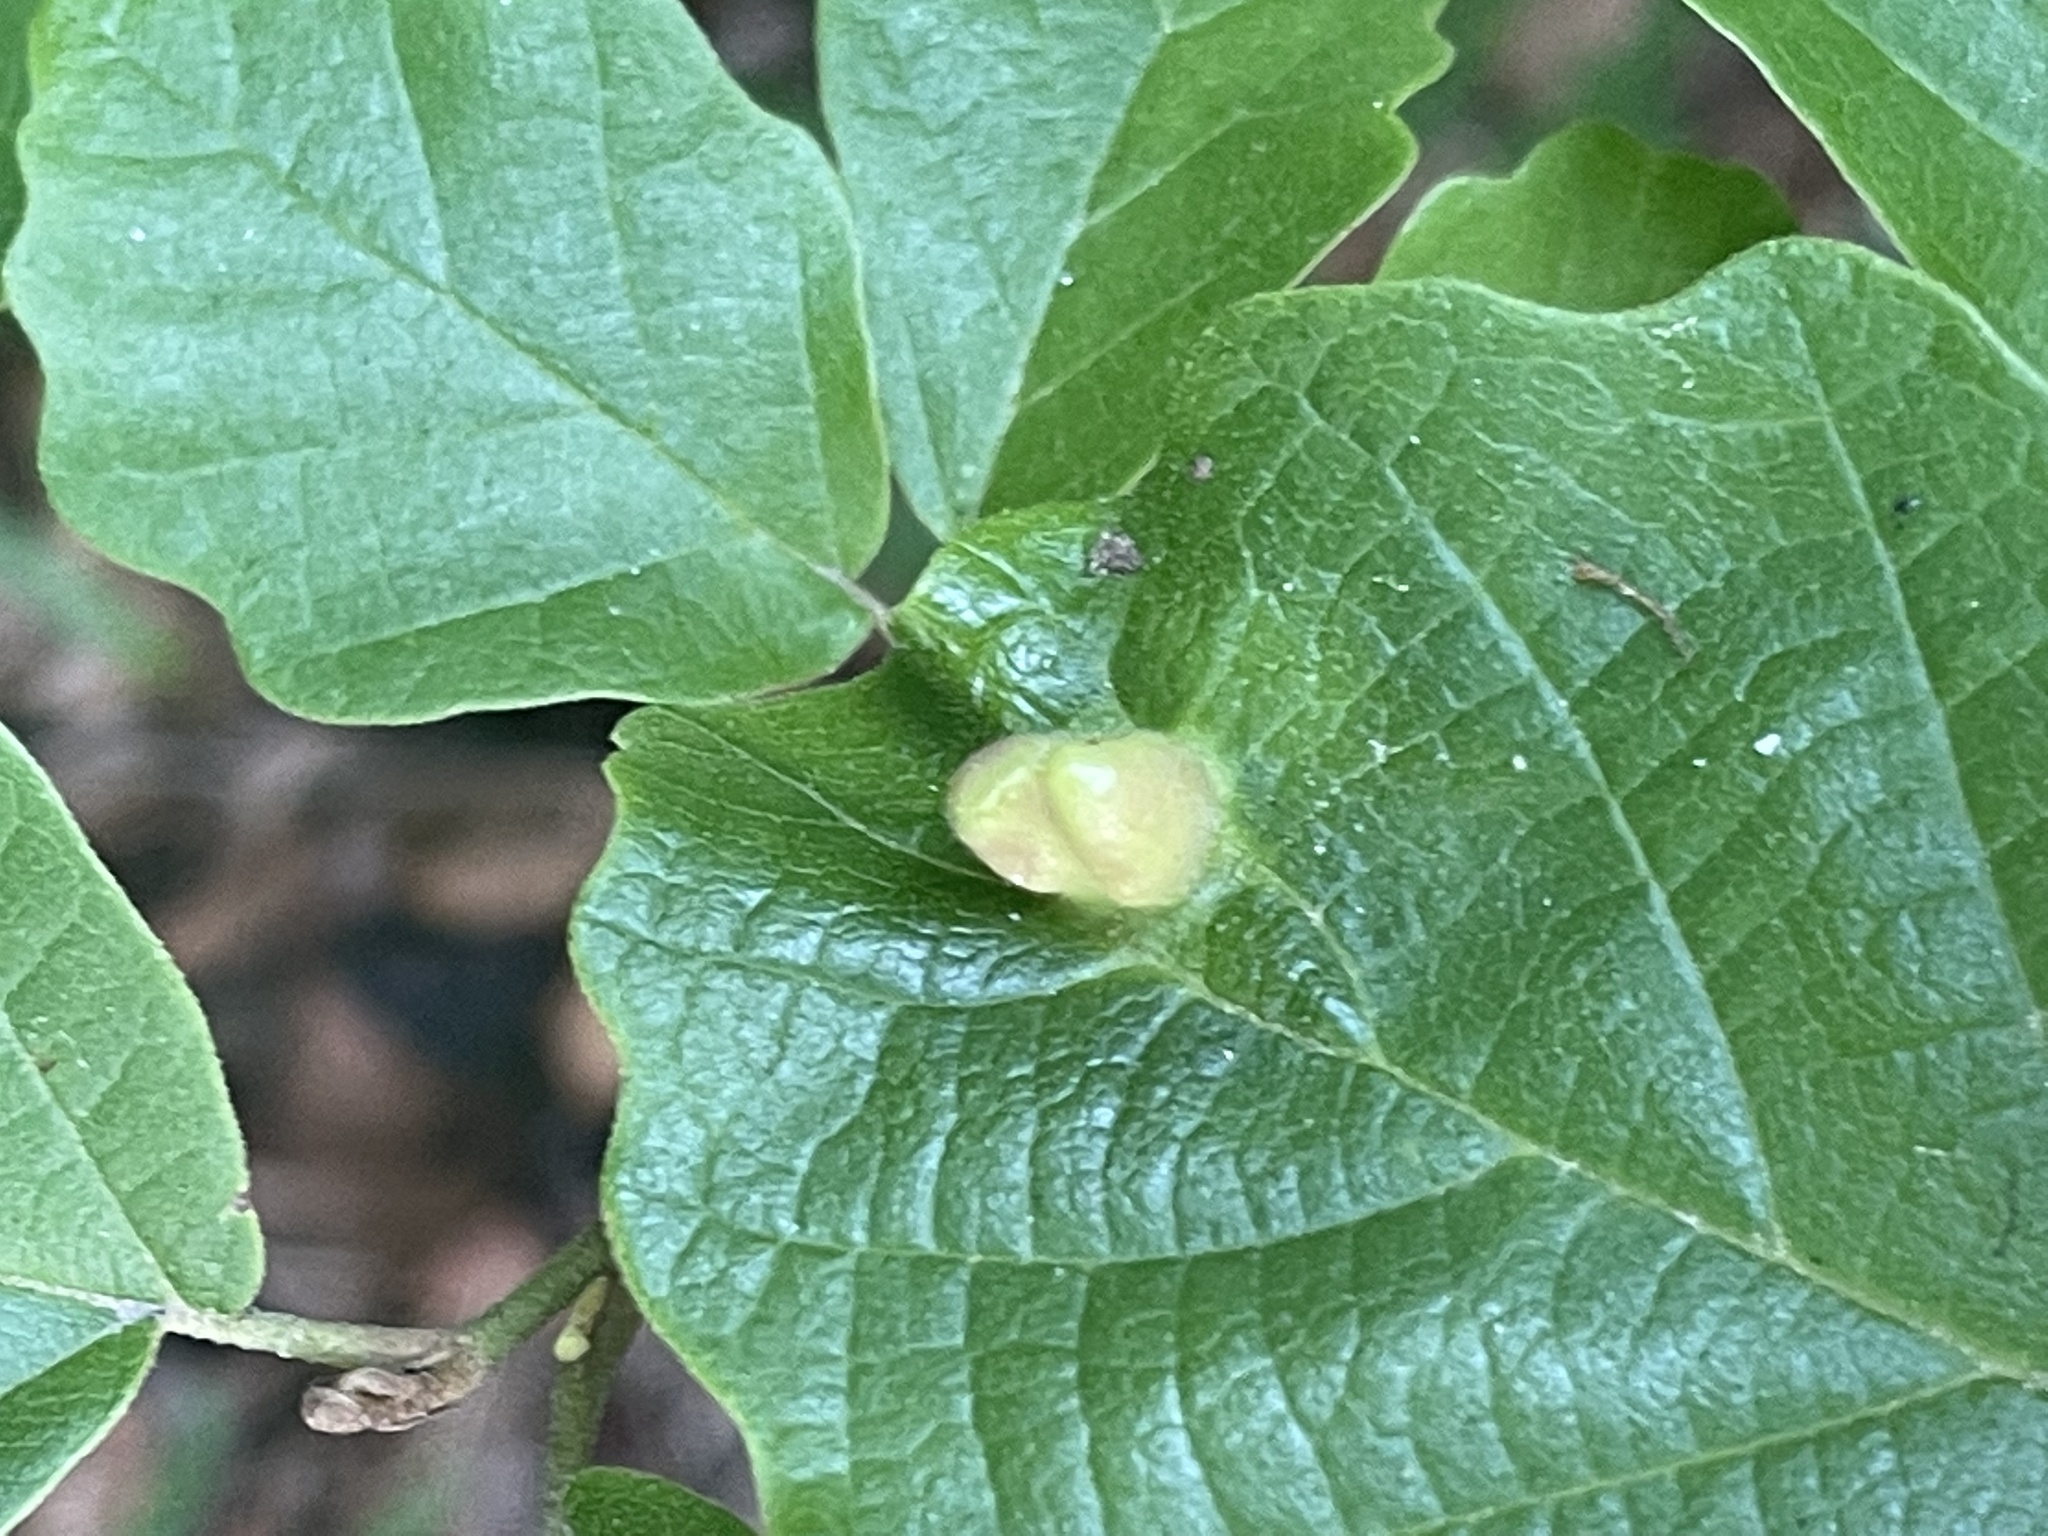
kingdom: Animalia
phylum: Arthropoda
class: Insecta
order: Hemiptera
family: Aphididae
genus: Hormaphis
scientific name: Hormaphis hamamelidis
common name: Witch-hazel cone gall aphid
